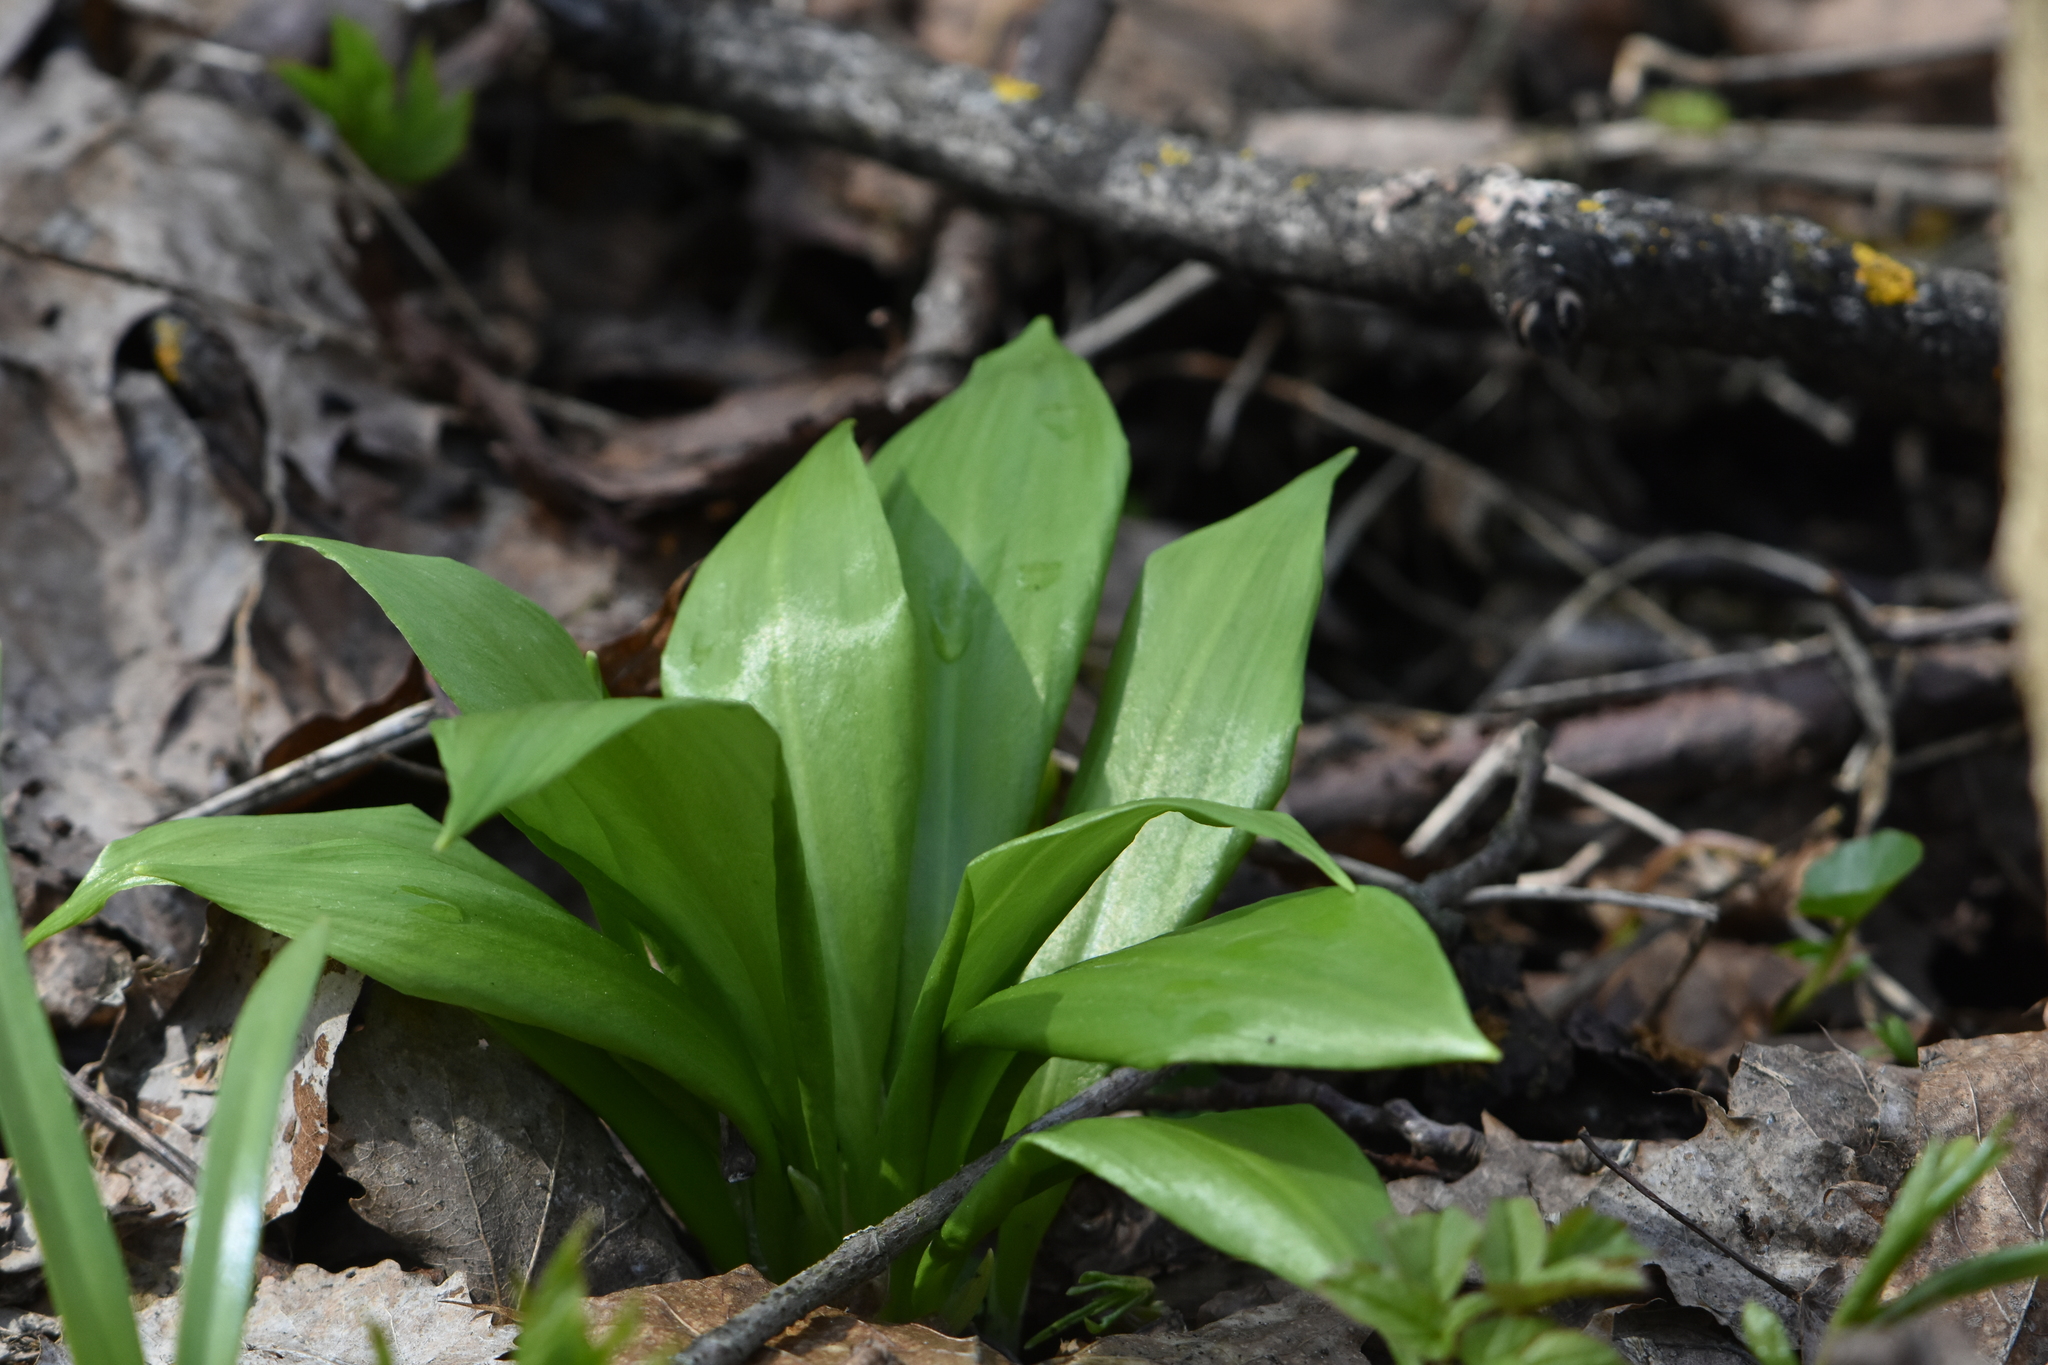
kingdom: Plantae
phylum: Tracheophyta
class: Liliopsida
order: Asparagales
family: Amaryllidaceae
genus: Allium
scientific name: Allium ursinum
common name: Ramsons
